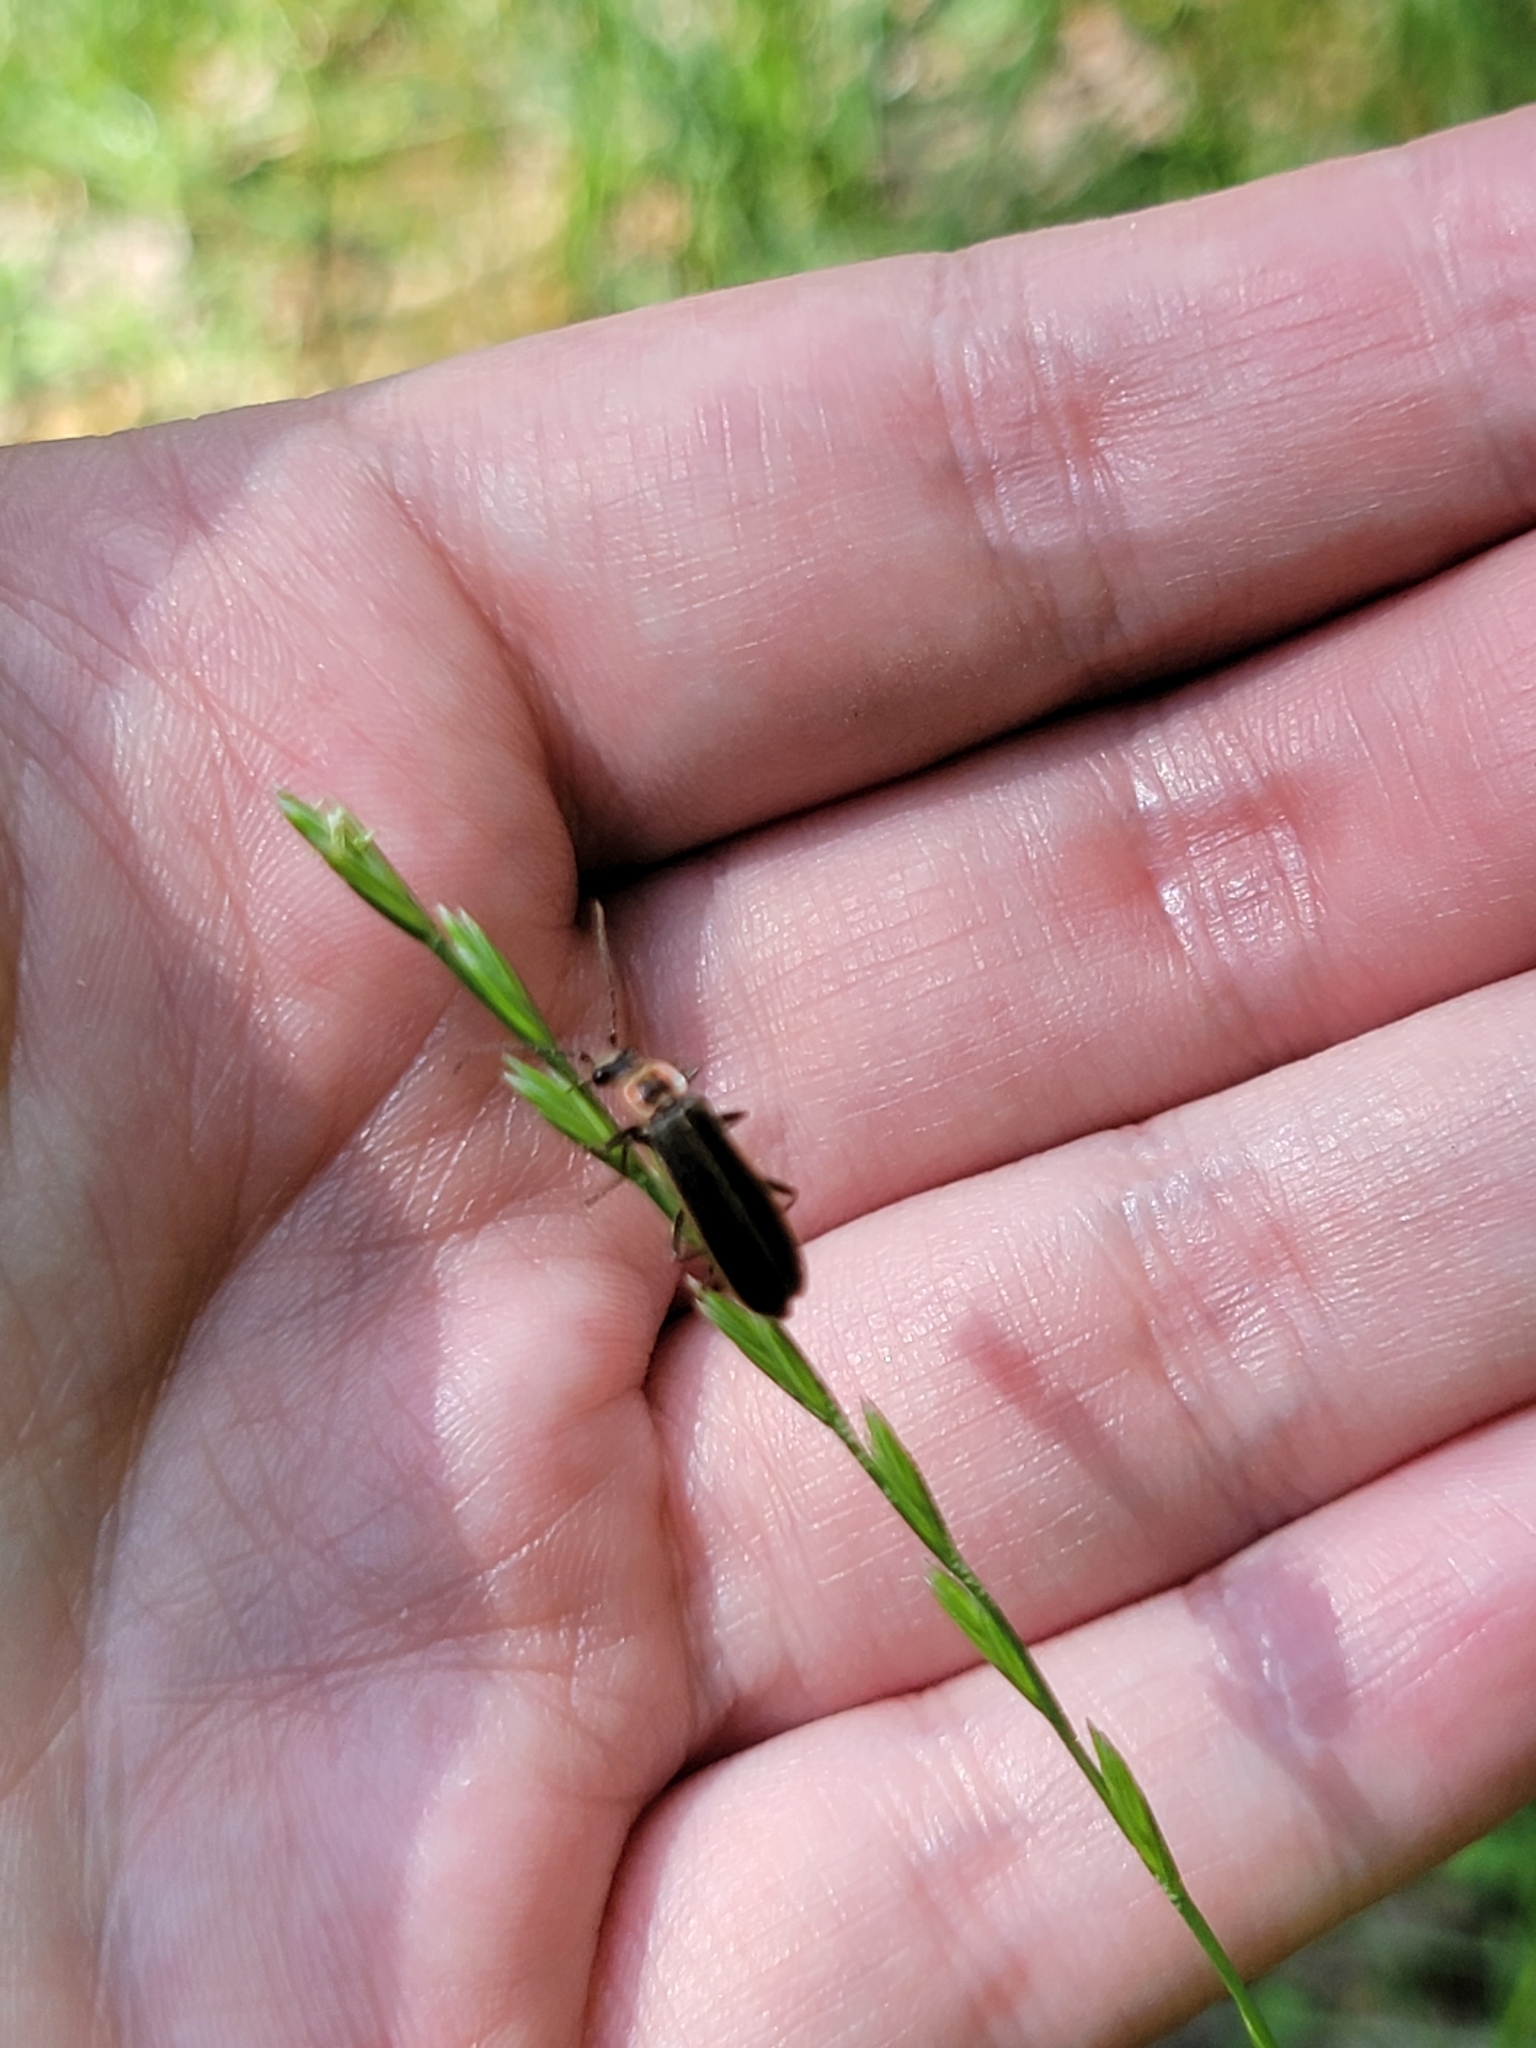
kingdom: Animalia
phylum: Arthropoda
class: Insecta
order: Coleoptera
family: Cantharidae
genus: Podabrus
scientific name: Podabrus brevicollis
